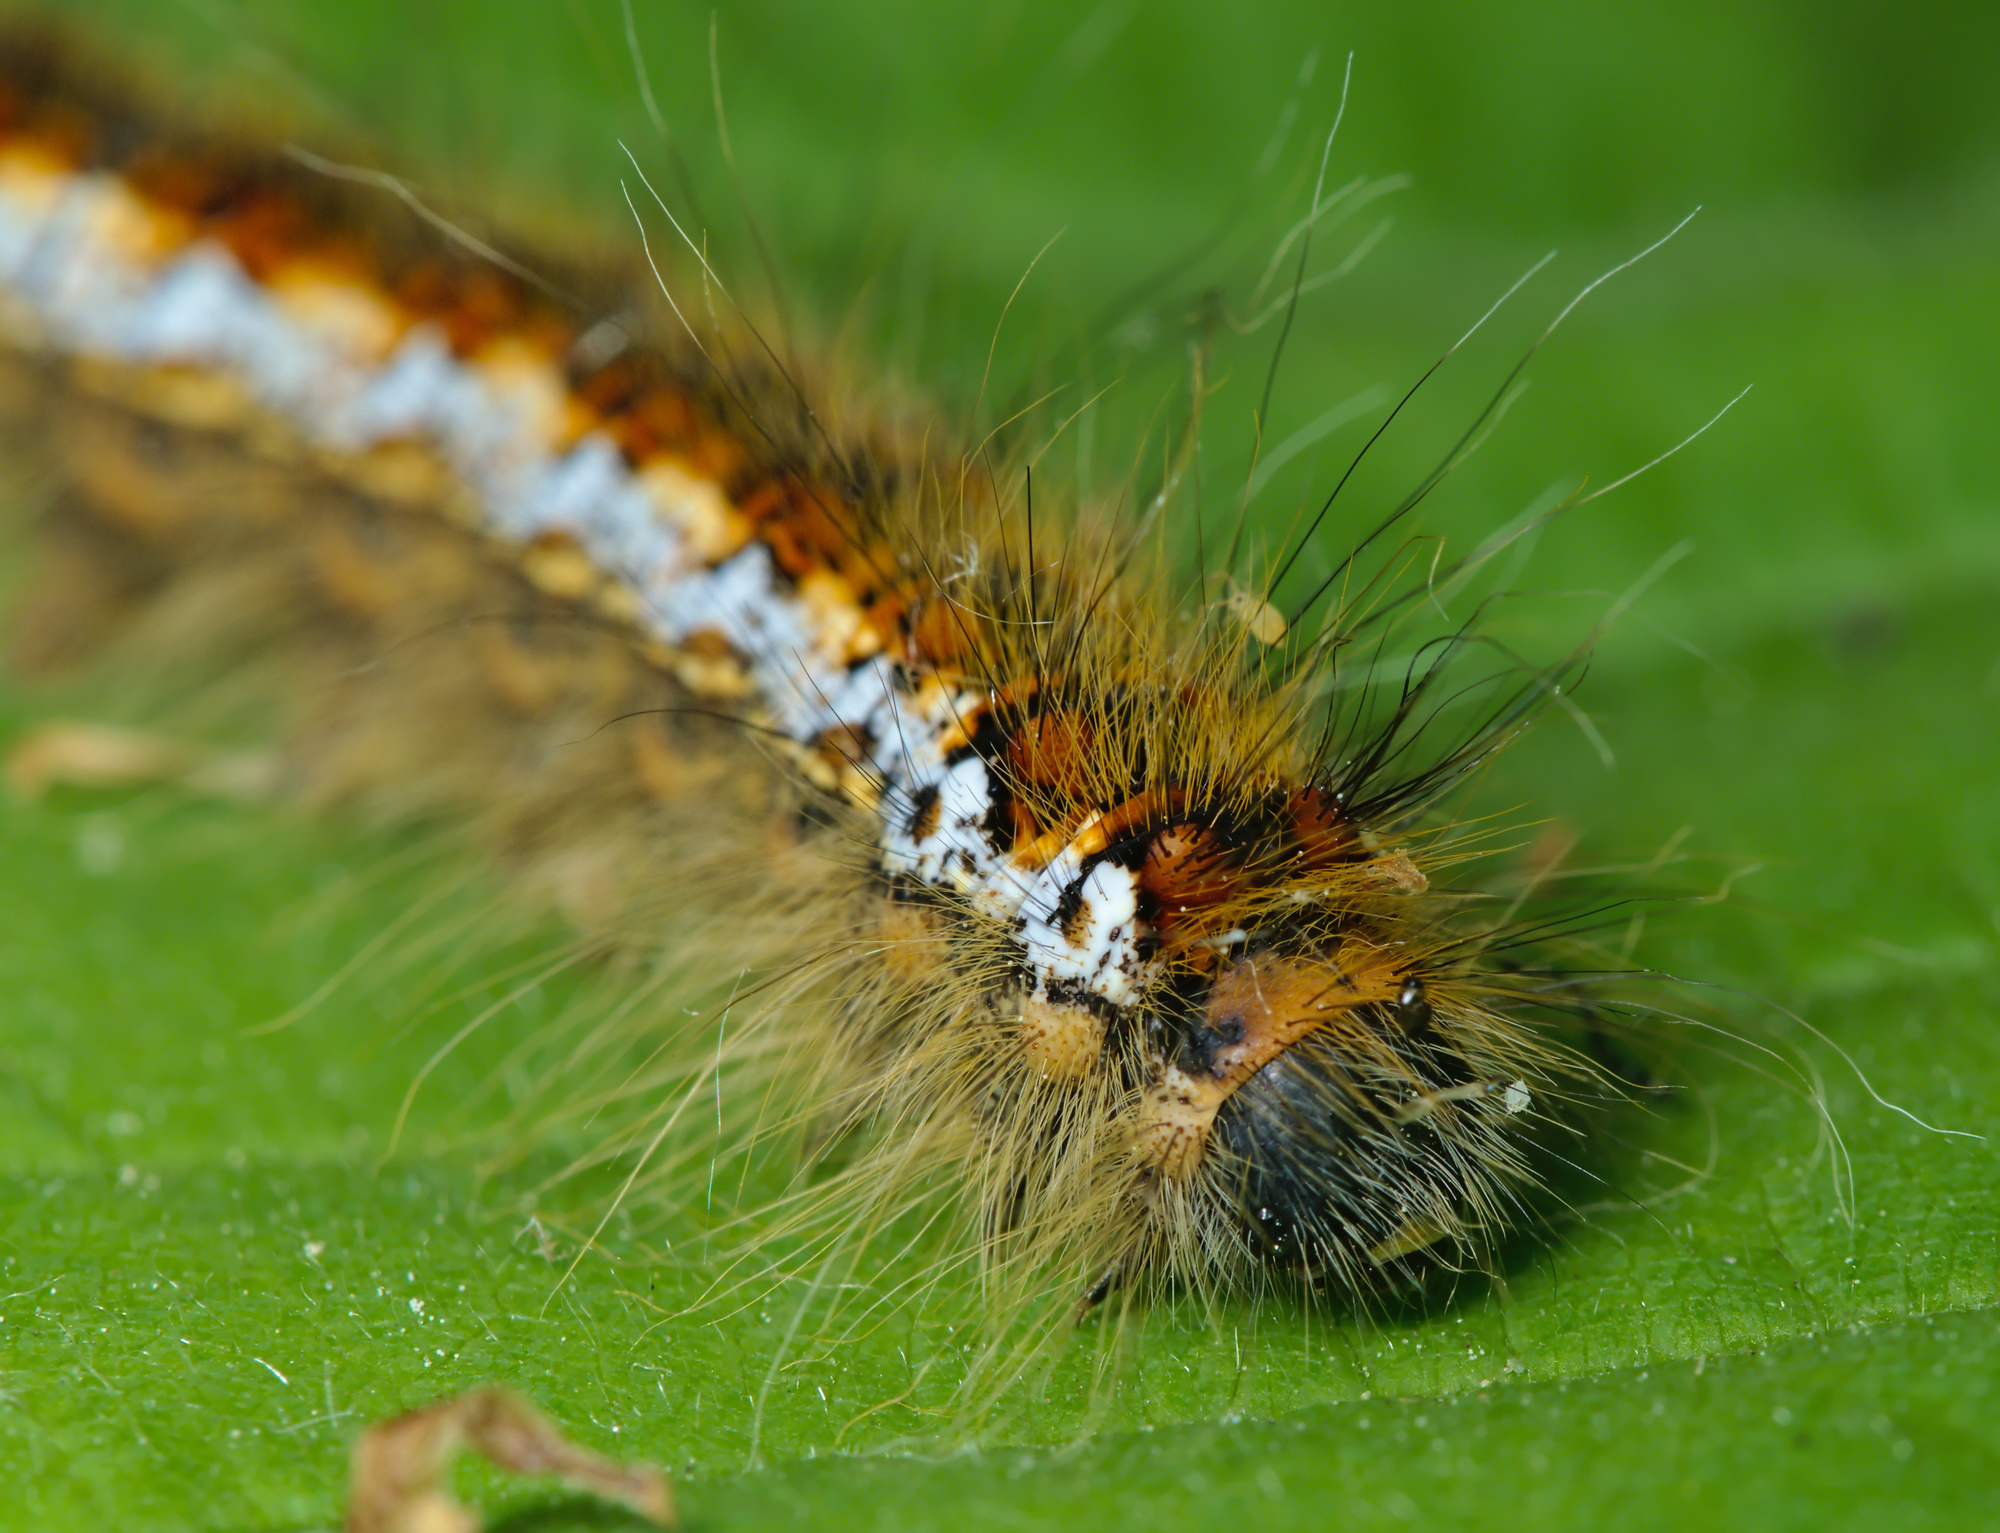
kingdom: Animalia
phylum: Arthropoda
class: Insecta
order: Lepidoptera
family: Lasiocampidae
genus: Trichiura
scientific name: Trichiura crataegi
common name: Pale eggar
